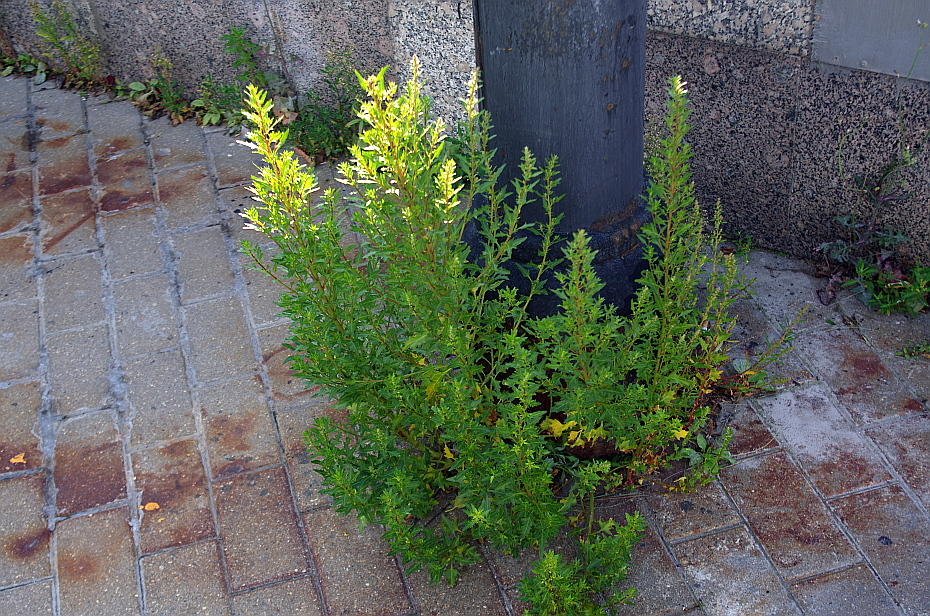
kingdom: Plantae
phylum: Tracheophyta
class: Magnoliopsida
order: Caryophyllales
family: Amaranthaceae
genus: Oxybasis
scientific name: Oxybasis glauca
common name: Glaucous goosefoot
